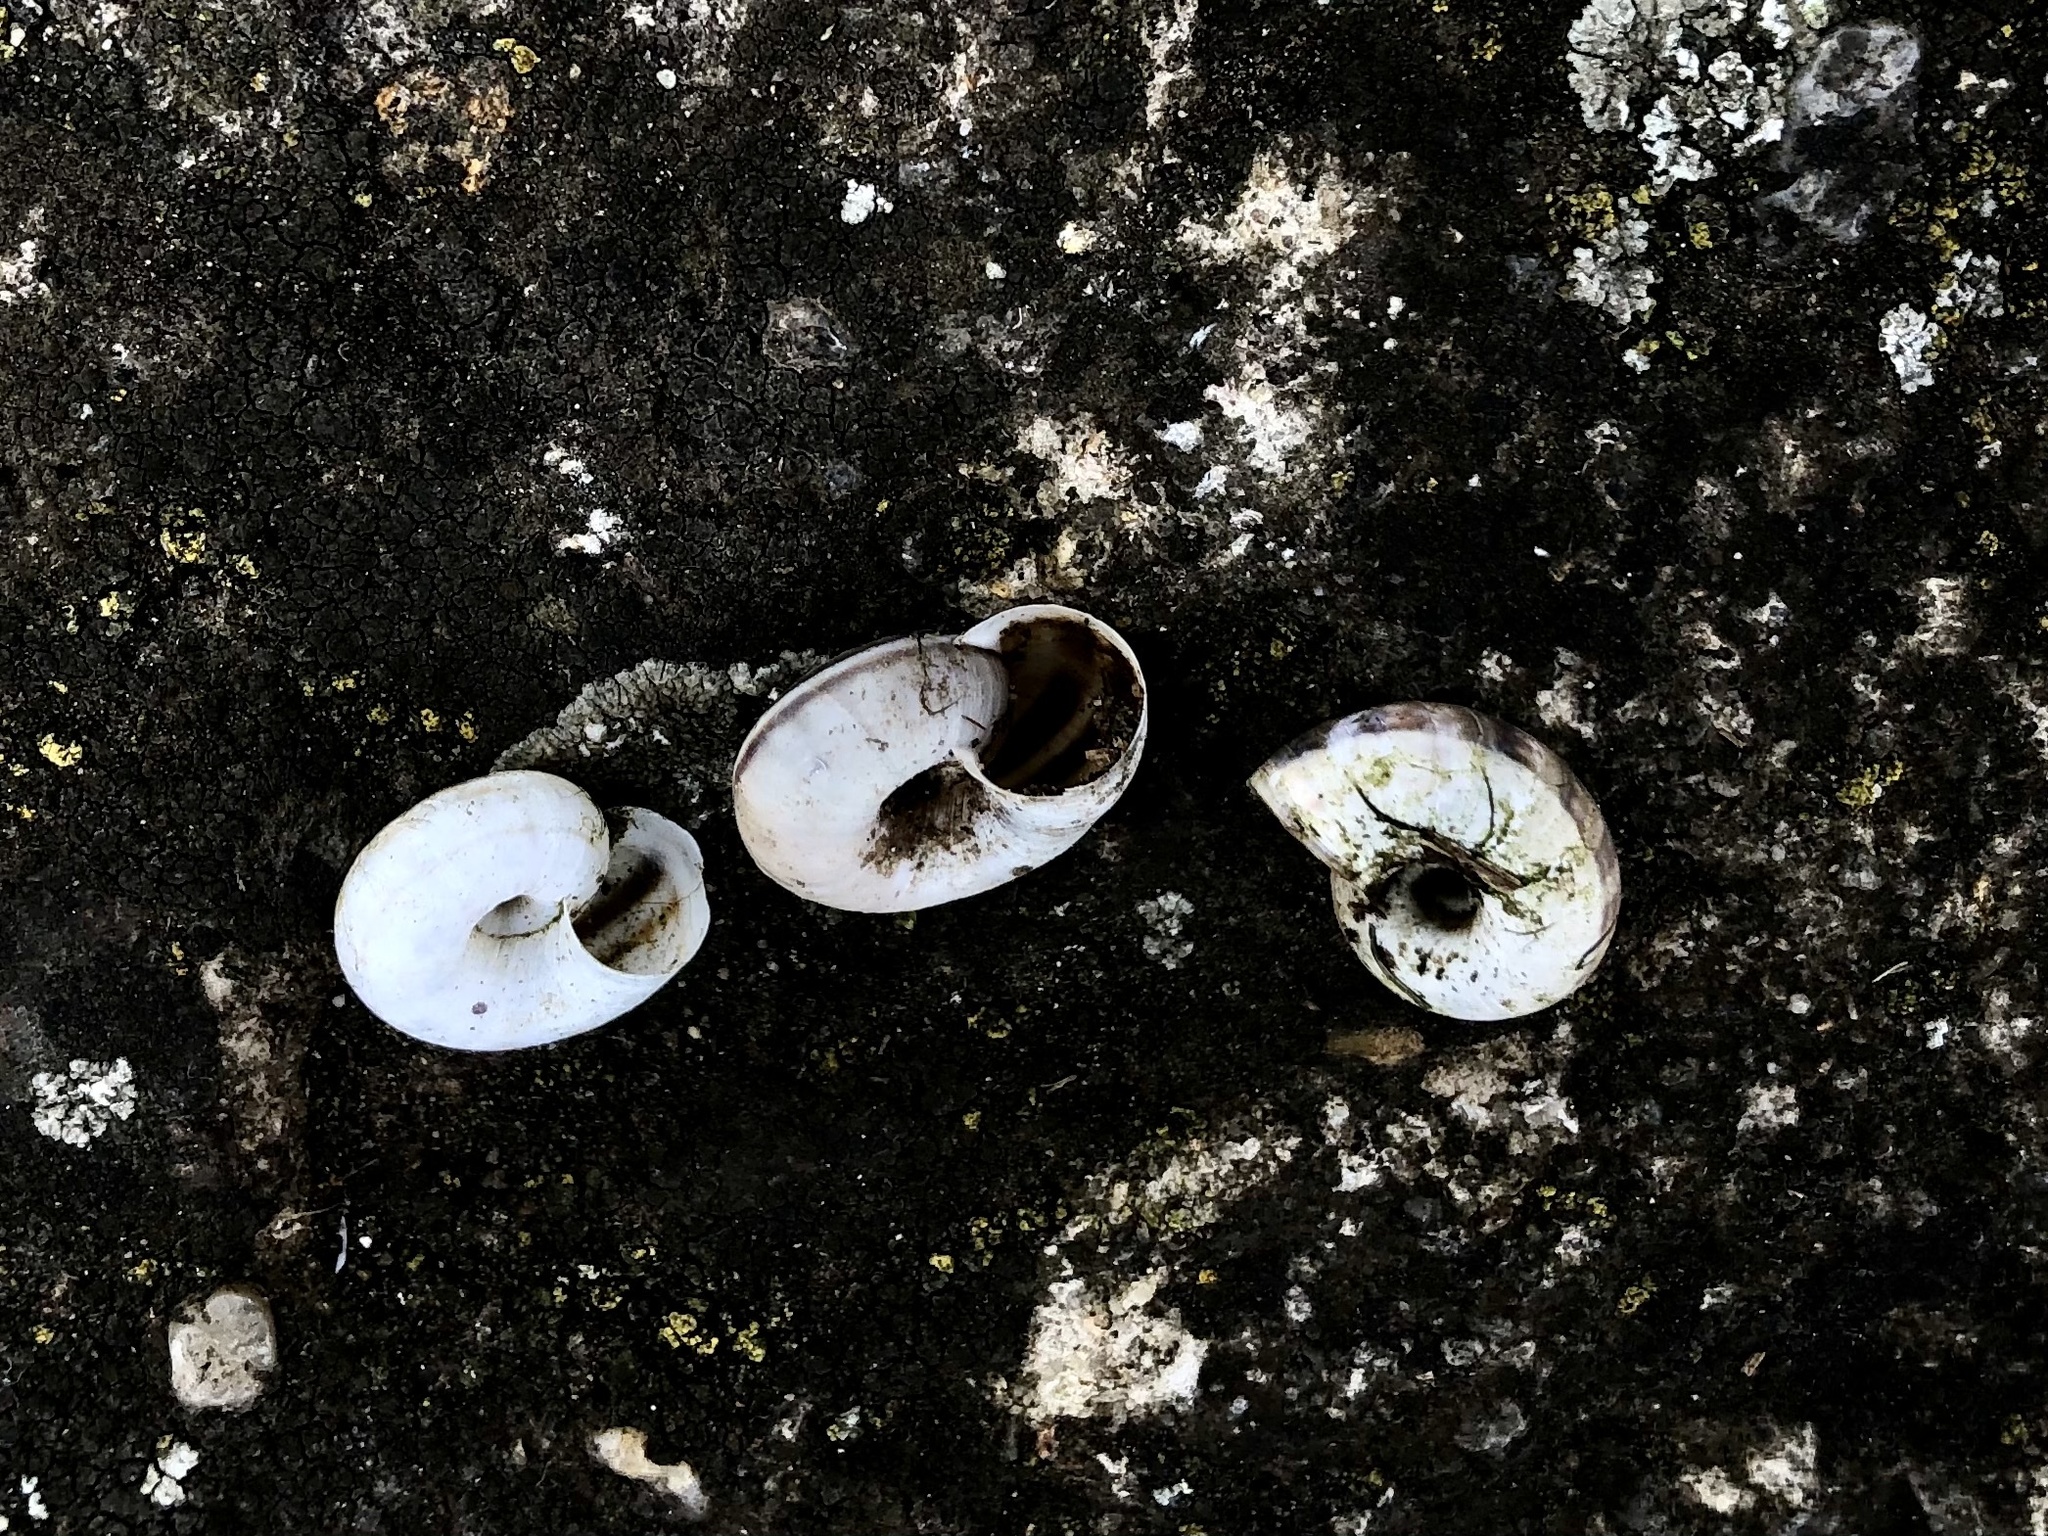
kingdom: Animalia
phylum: Mollusca
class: Gastropoda
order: Stylommatophora
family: Geomitridae
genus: Xerolenta
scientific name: Xerolenta obvia
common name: White heath snail
